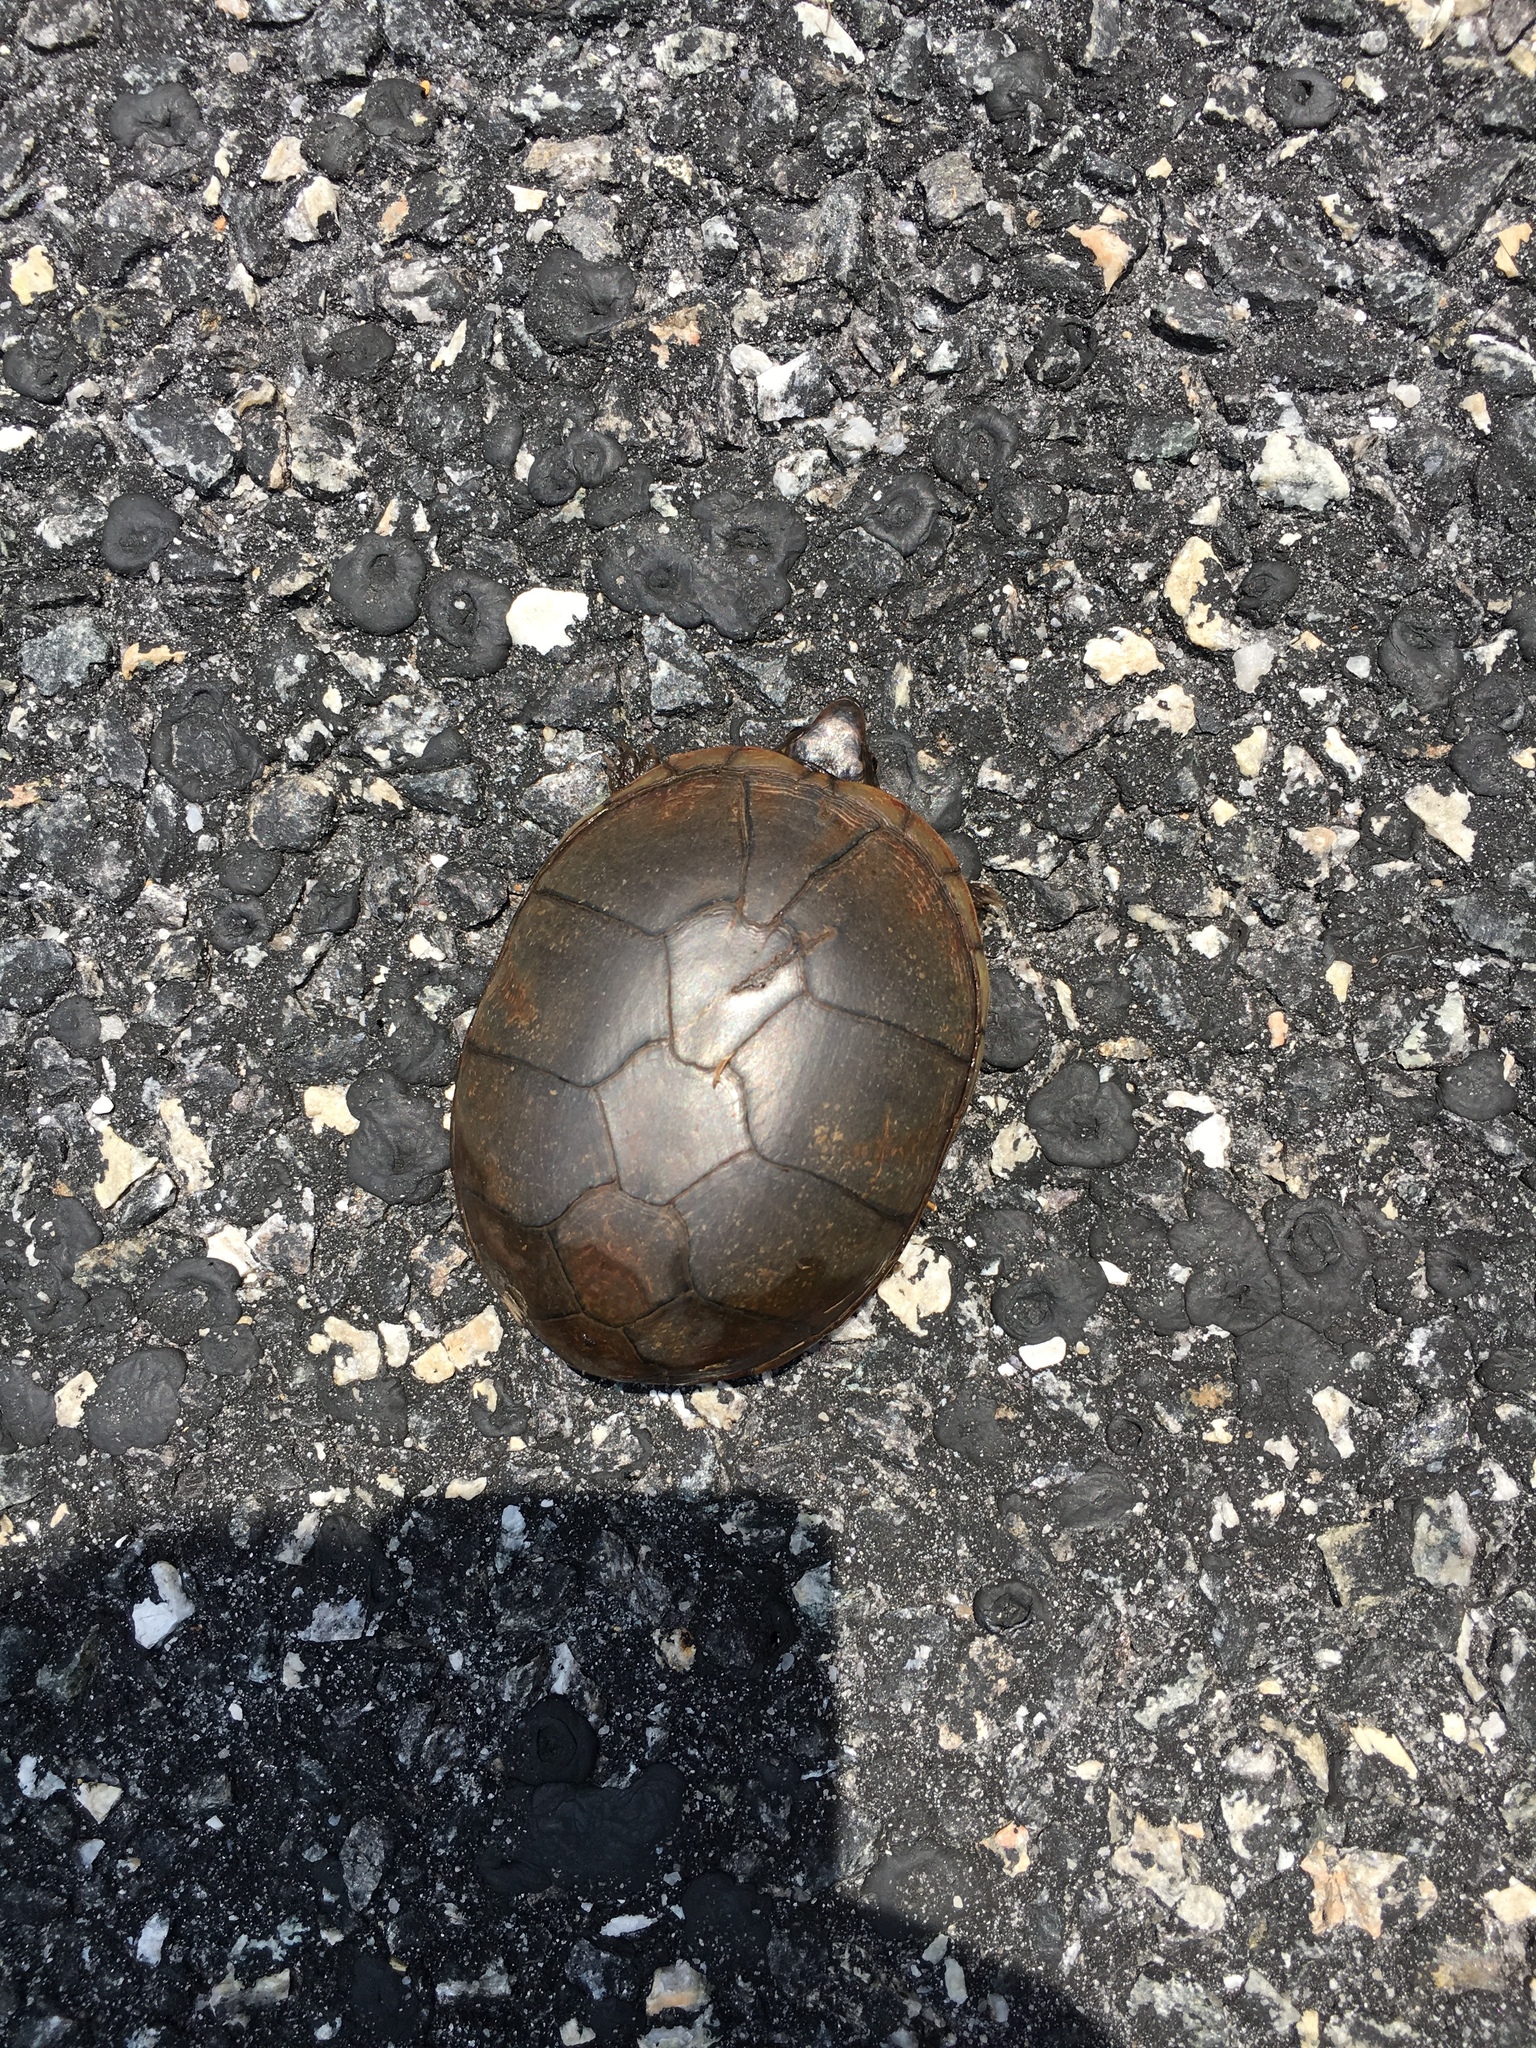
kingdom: Animalia
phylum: Chordata
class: Testudines
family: Kinosternidae
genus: Kinosternon
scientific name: Kinosternon subrubrum
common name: Eastern mud turtle
